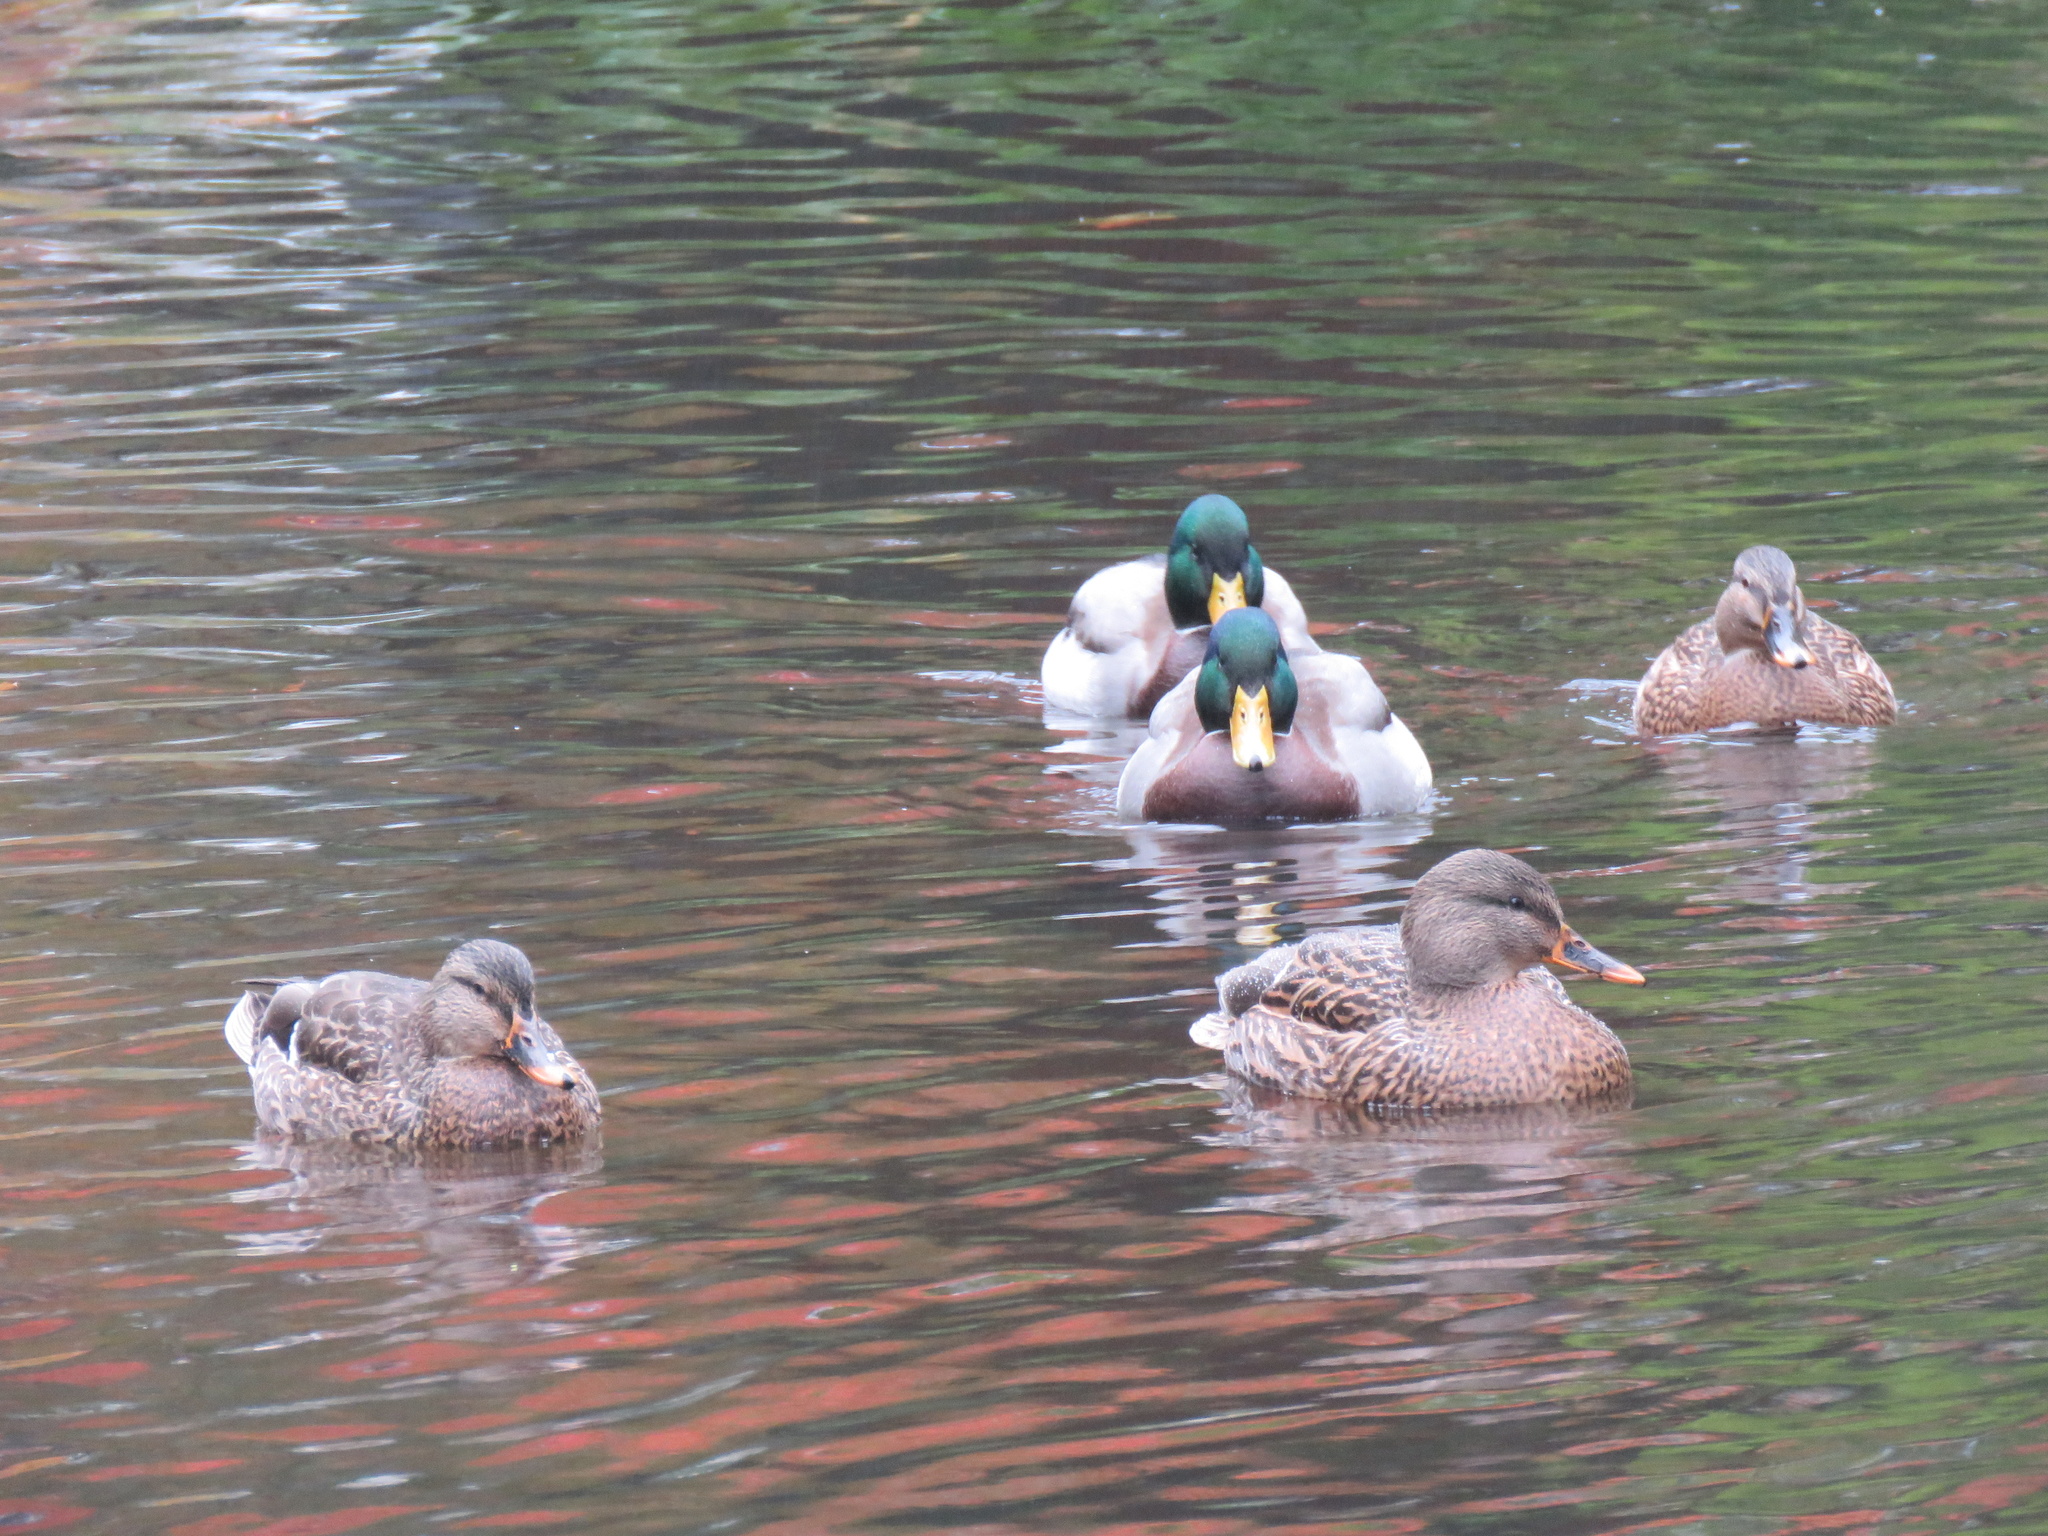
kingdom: Animalia
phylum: Chordata
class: Aves
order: Anseriformes
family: Anatidae
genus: Anas
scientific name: Anas platyrhynchos
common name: Mallard
